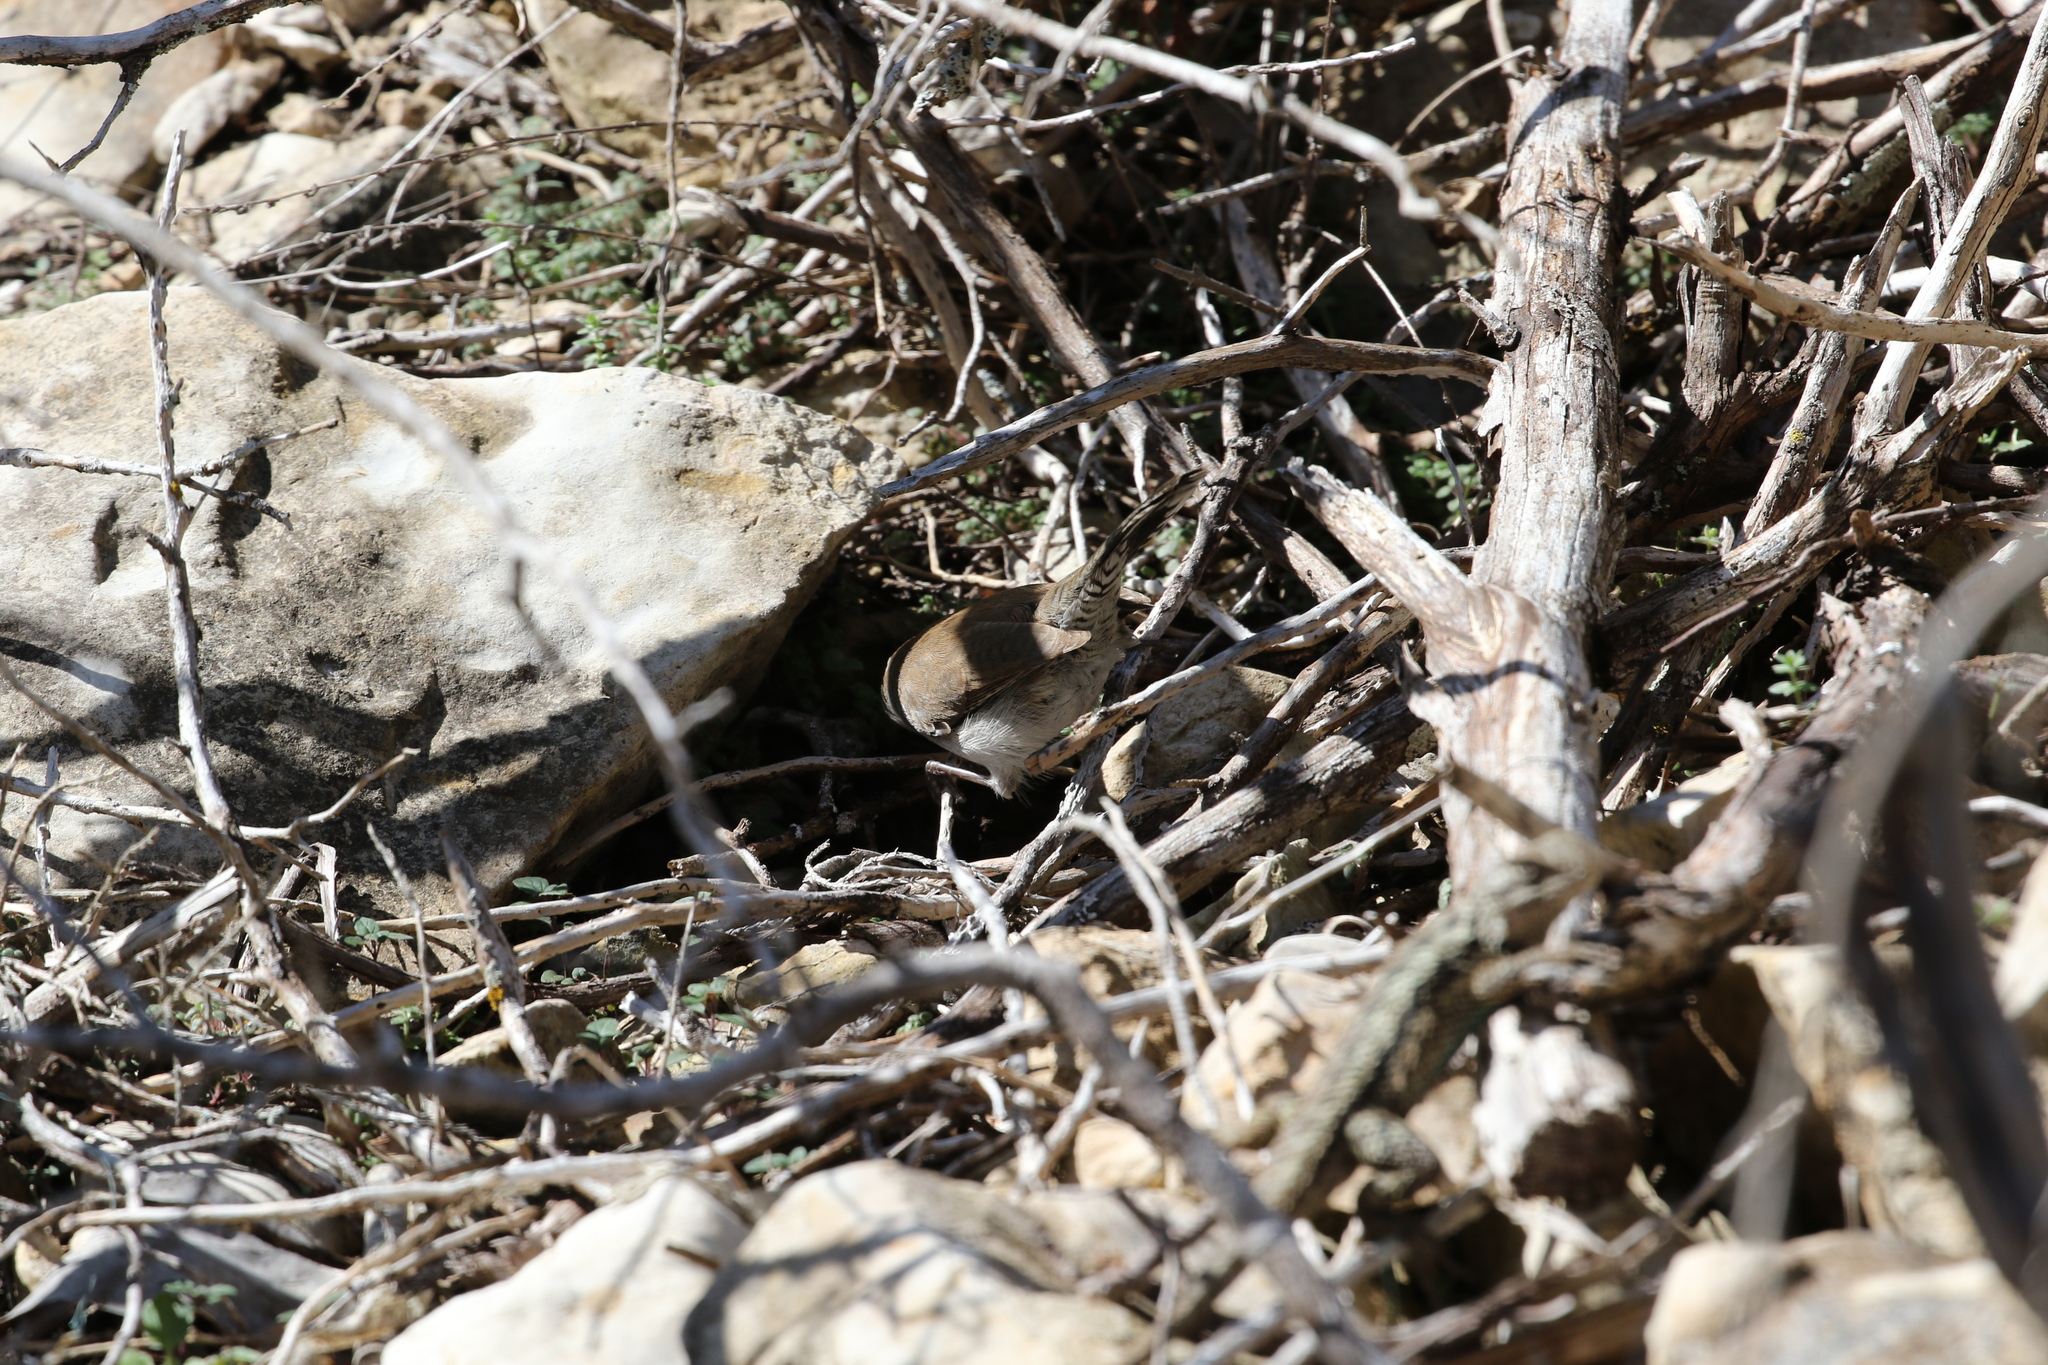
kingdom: Animalia
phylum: Chordata
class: Aves
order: Passeriformes
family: Troglodytidae
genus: Thryomanes
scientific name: Thryomanes bewickii
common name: Bewick's wren
